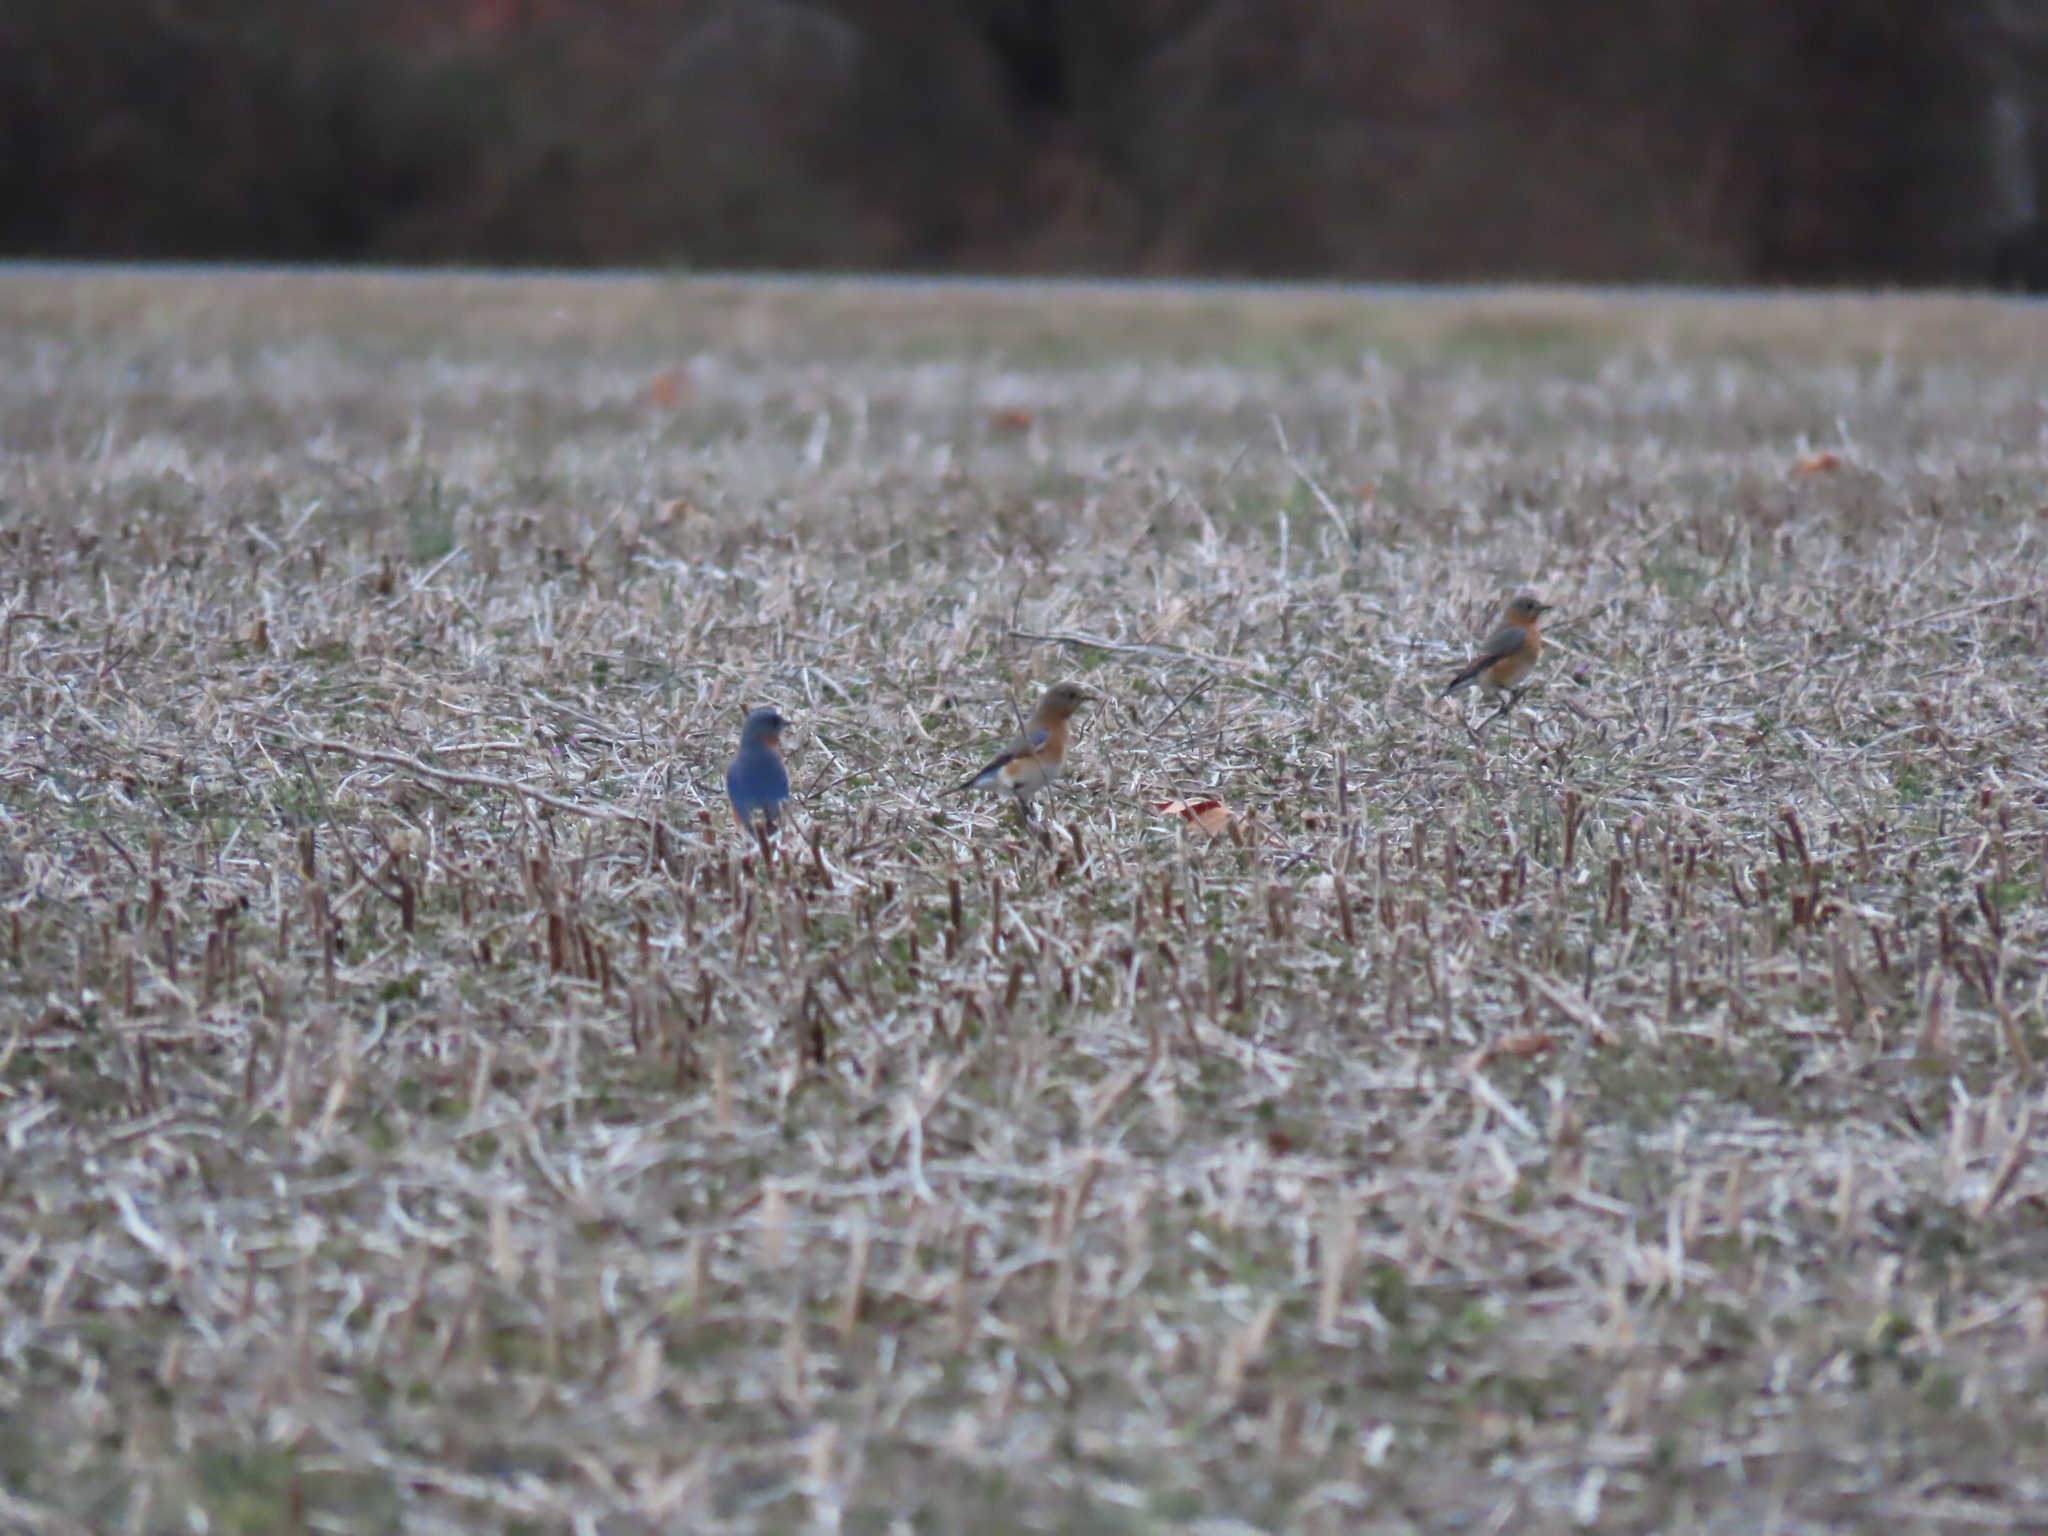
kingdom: Animalia
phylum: Chordata
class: Aves
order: Passeriformes
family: Turdidae
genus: Sialia
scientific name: Sialia sialis
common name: Eastern bluebird
